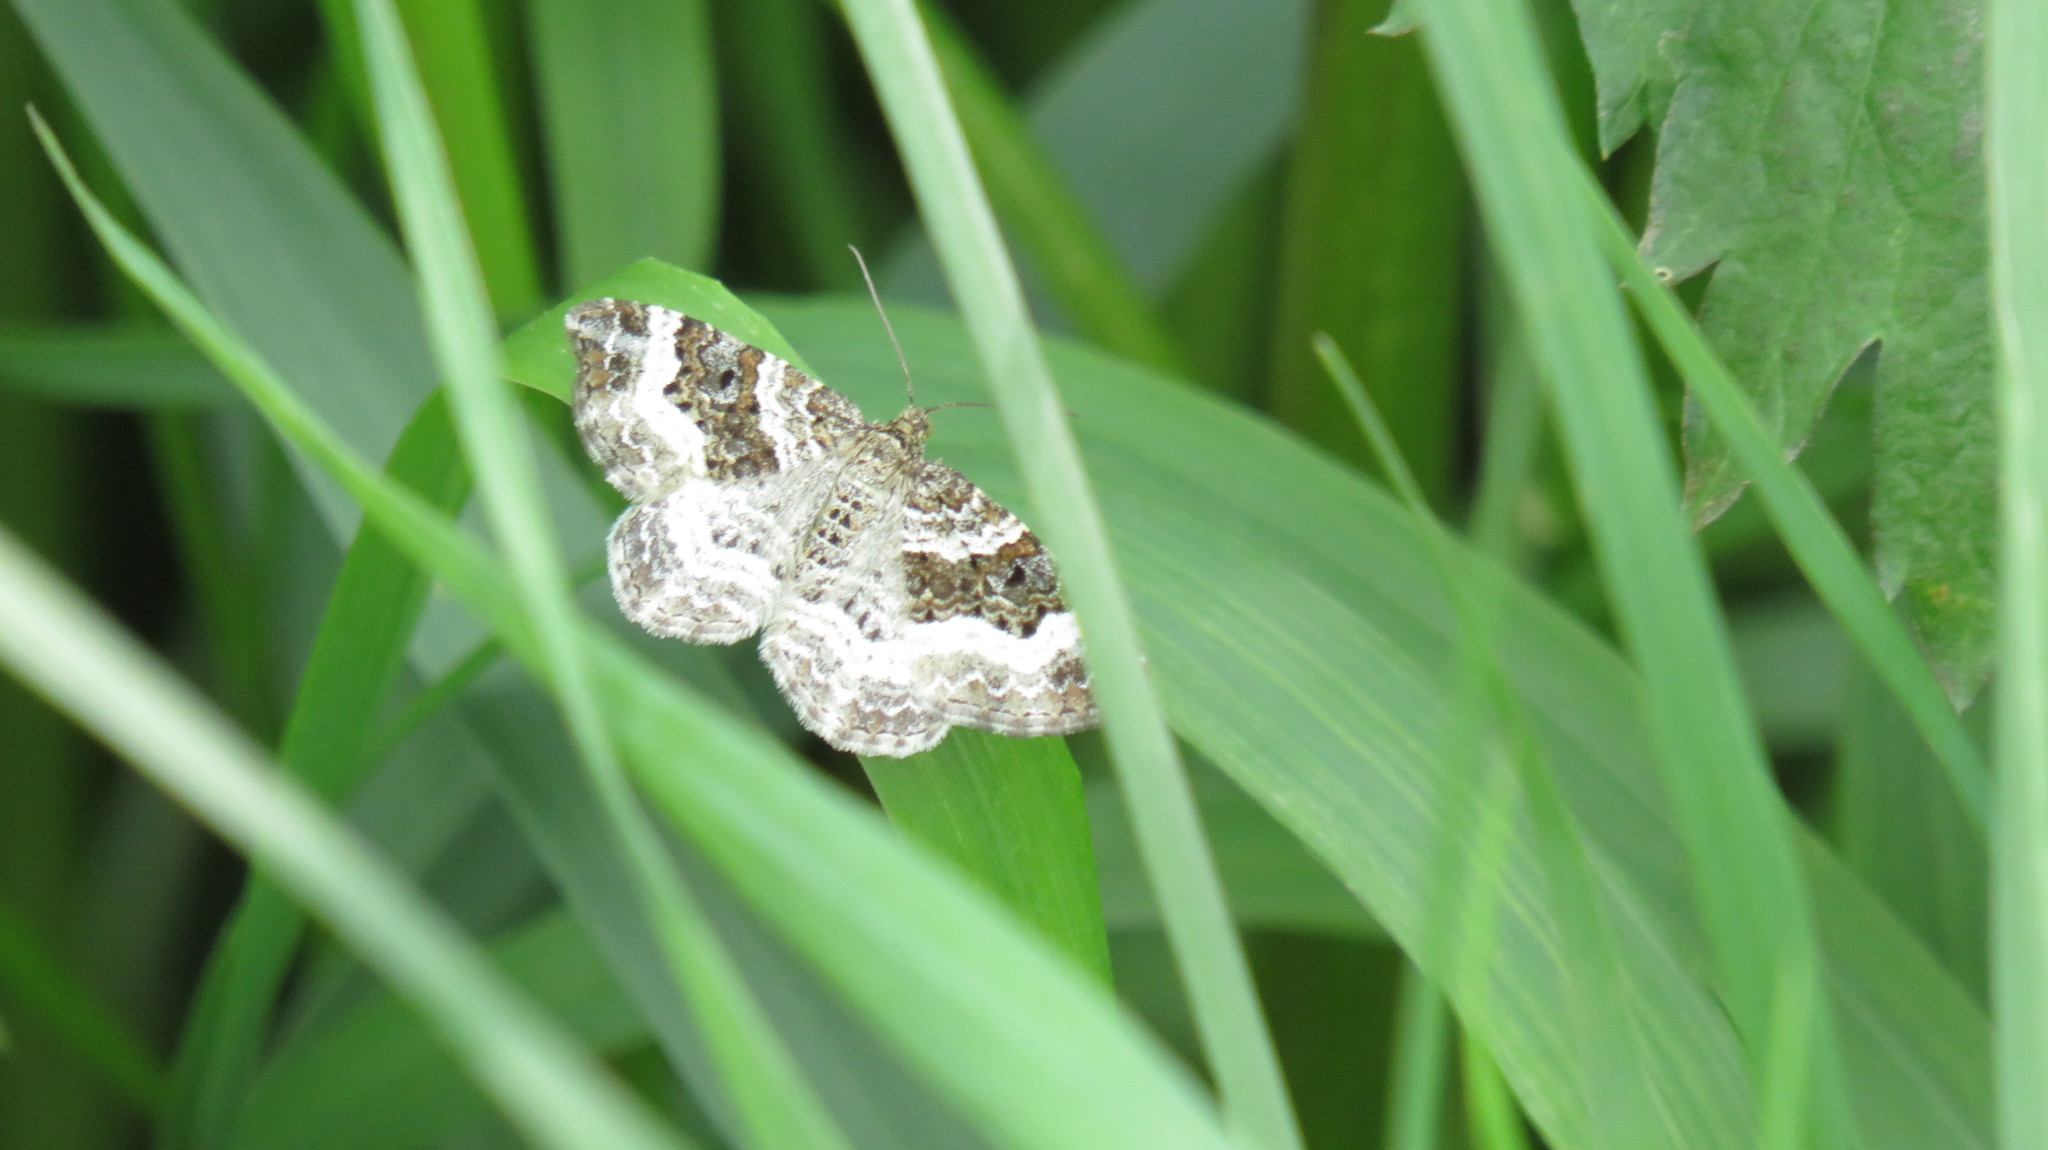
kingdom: Animalia
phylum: Arthropoda
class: Insecta
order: Lepidoptera
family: Geometridae
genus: Epirrhoe
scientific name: Epirrhoe alternata
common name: Common carpet
